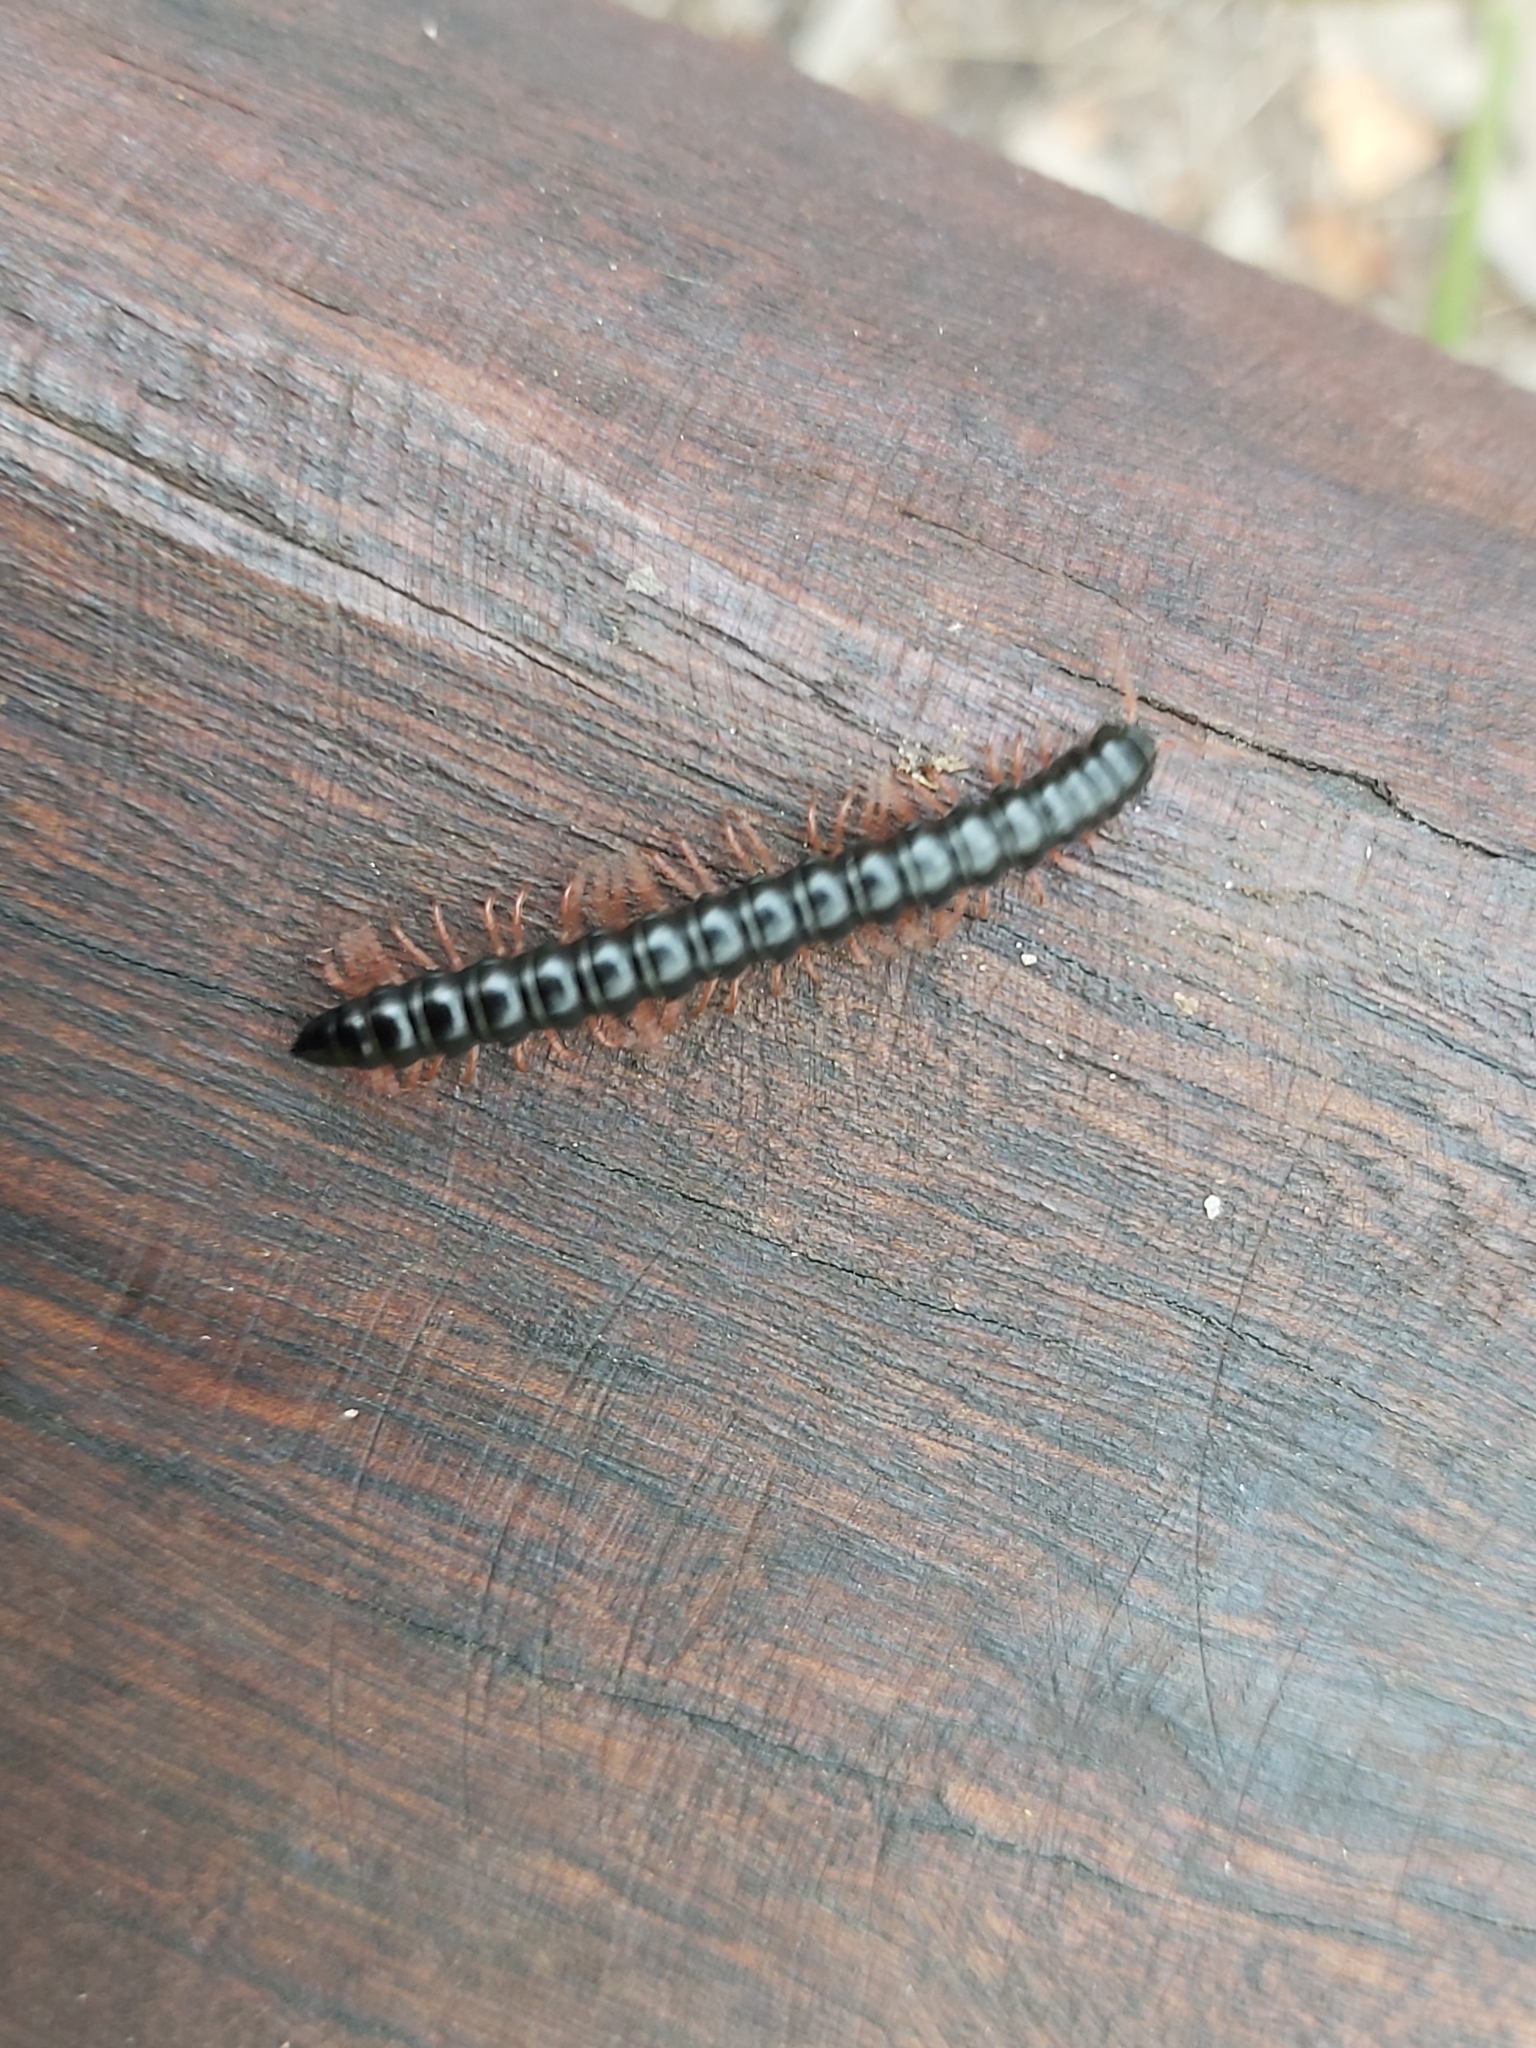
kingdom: Animalia
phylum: Arthropoda
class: Diplopoda
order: Polydesmida
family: Paradoxosomatidae
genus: Heterocladosoma
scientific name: Heterocladosoma
